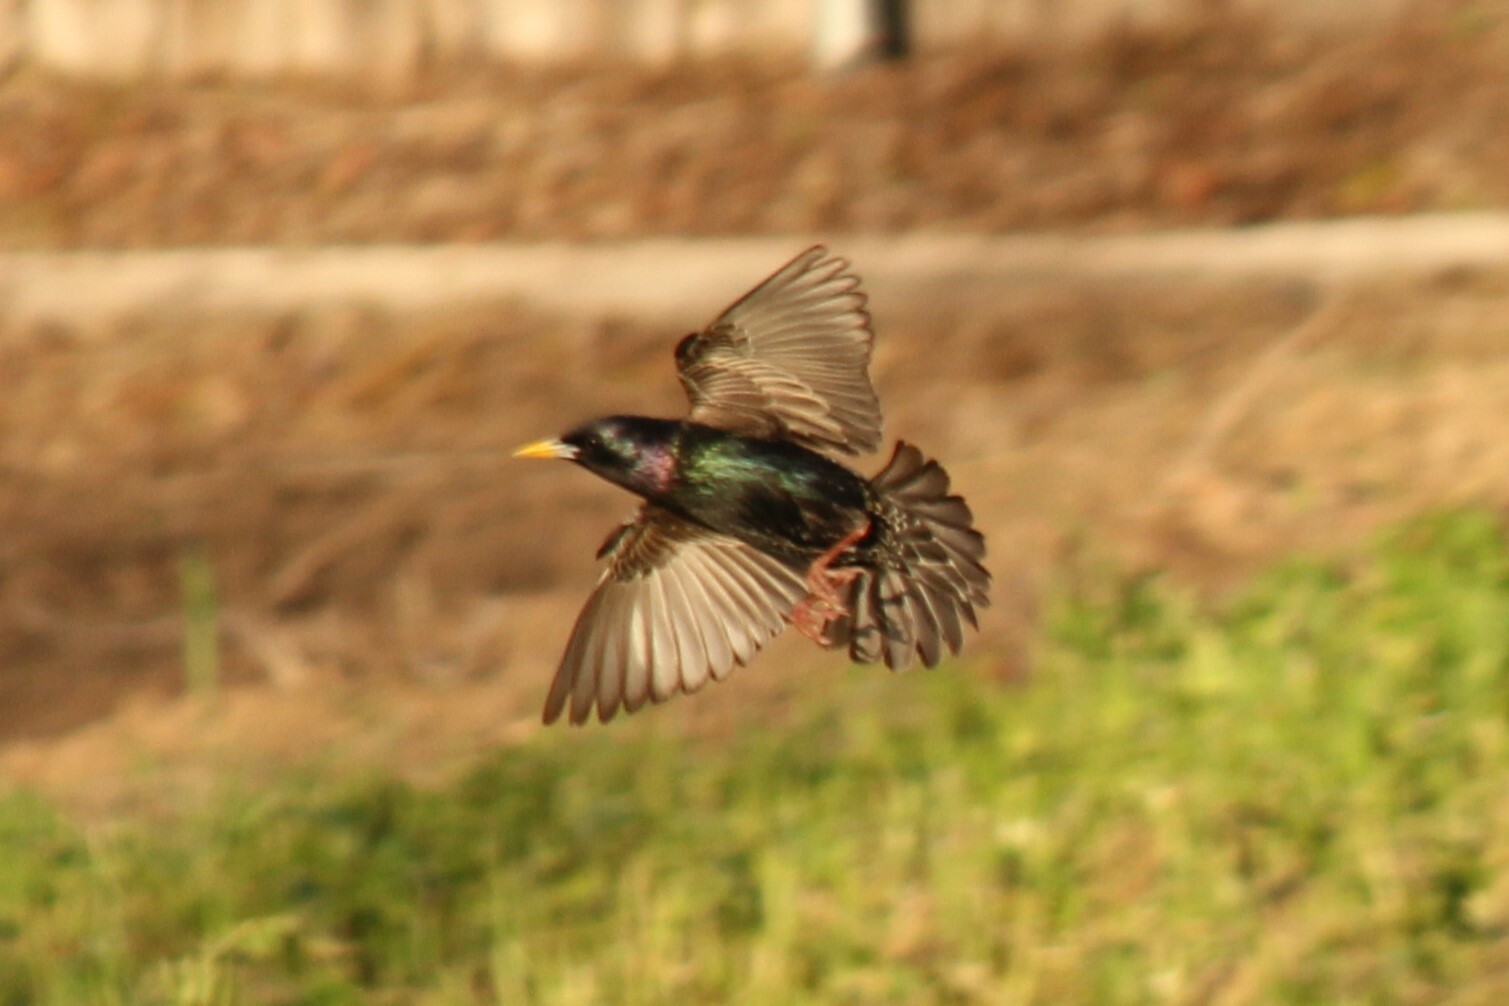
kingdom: Animalia
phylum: Chordata
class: Aves
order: Passeriformes
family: Sturnidae
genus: Sturnus
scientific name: Sturnus vulgaris
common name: Common starling
